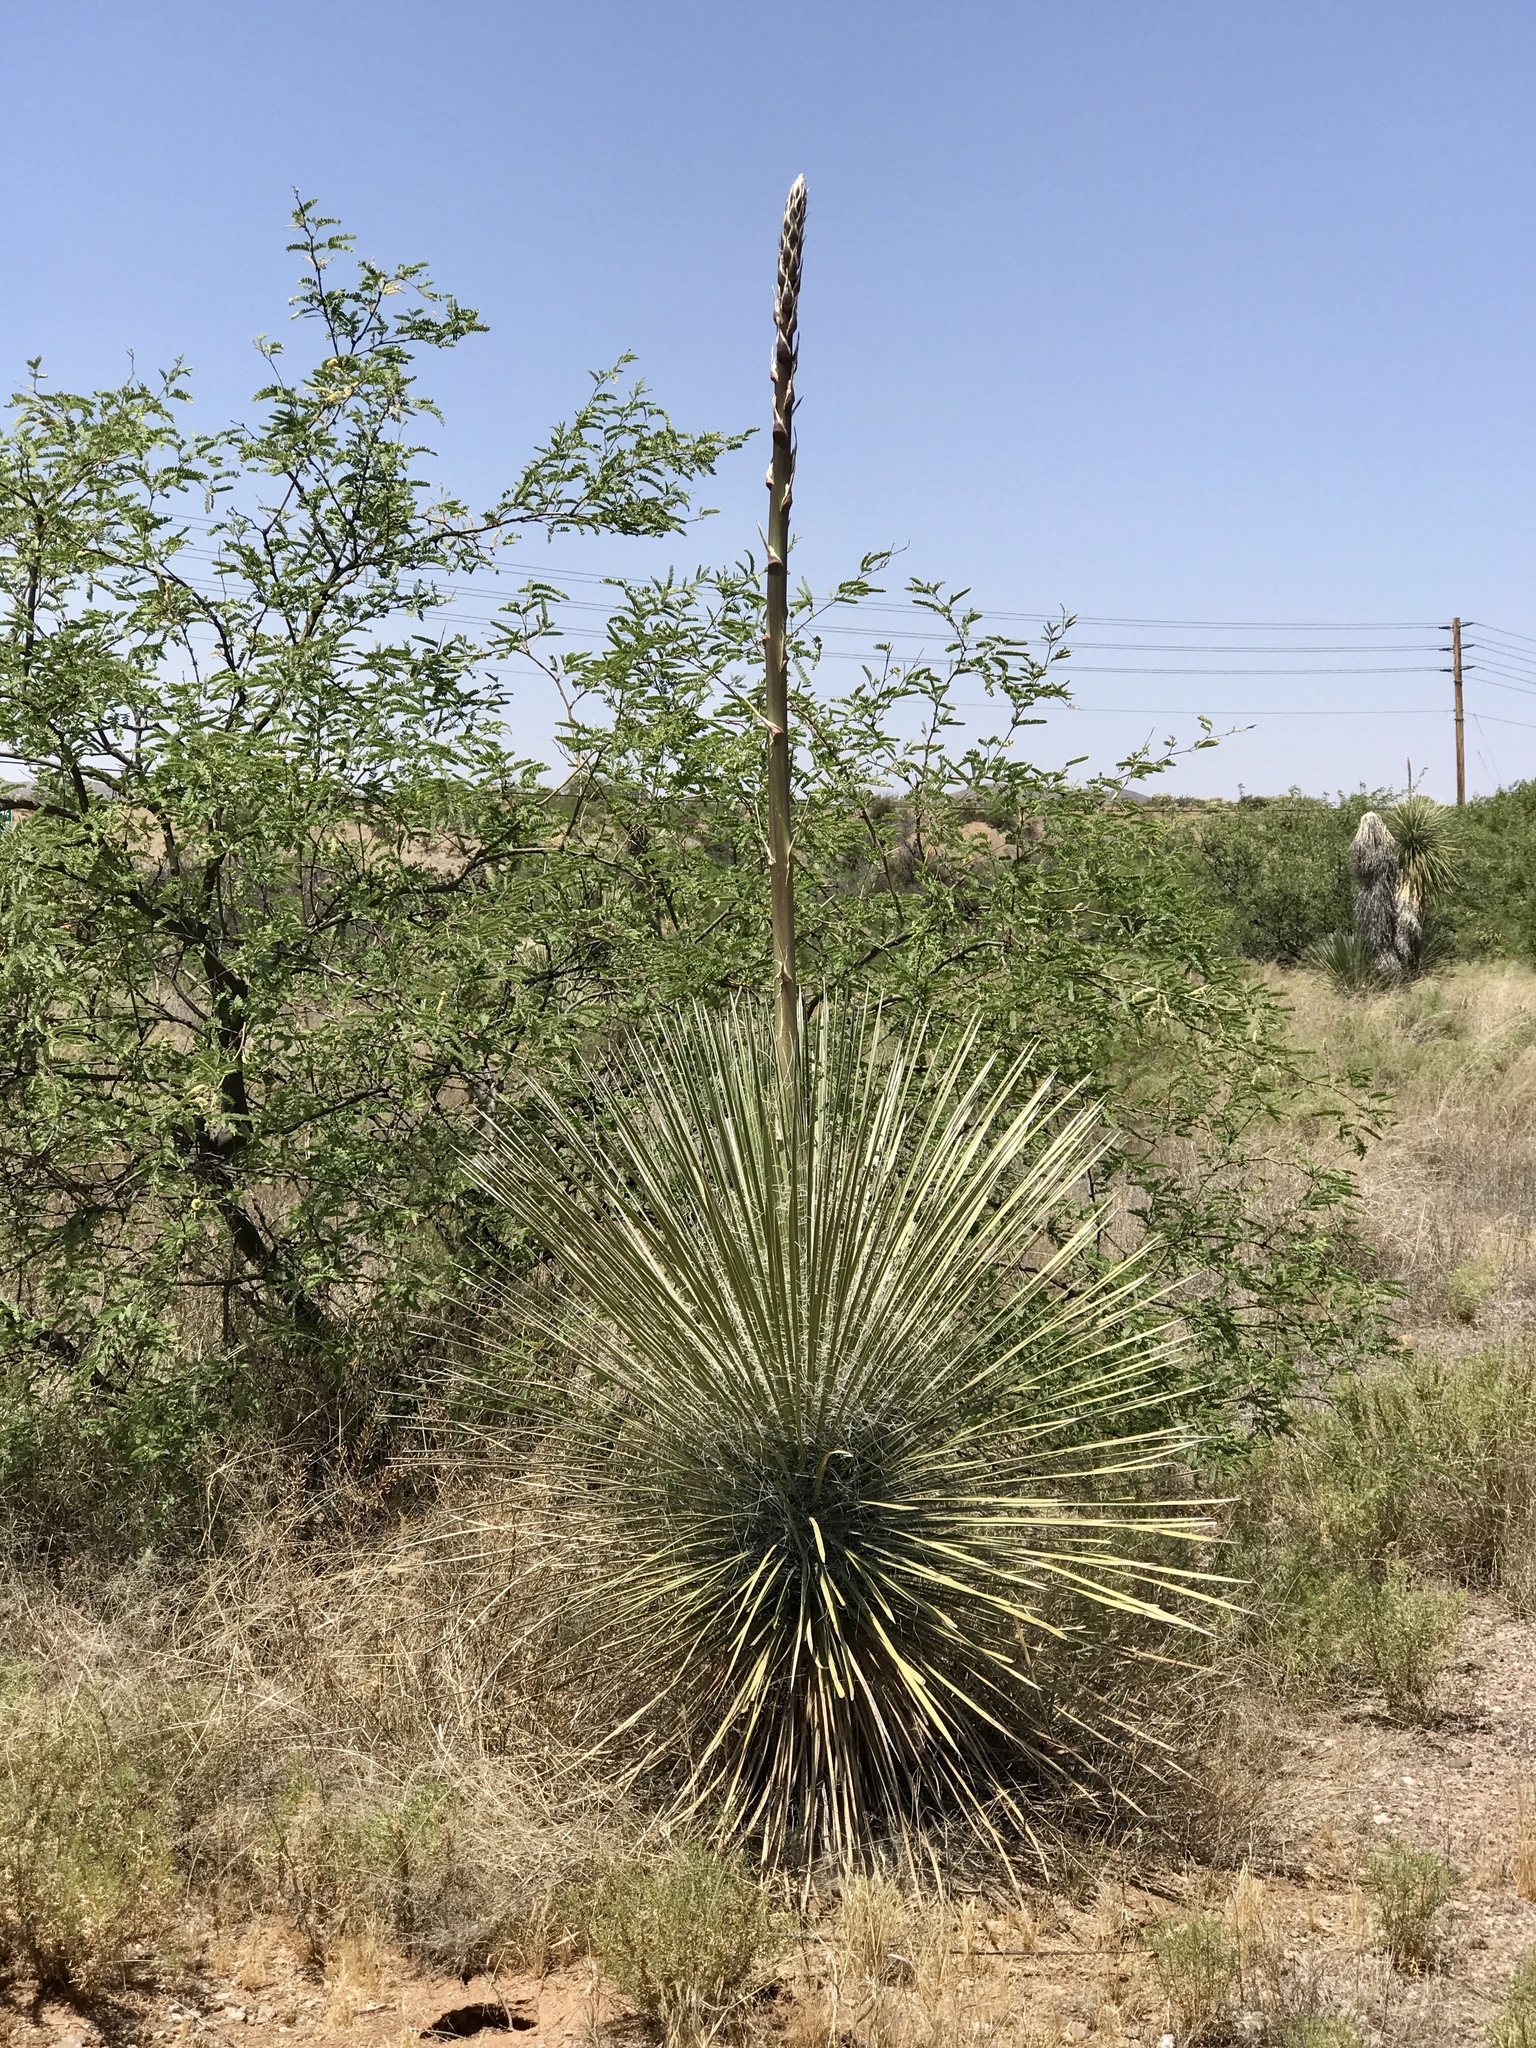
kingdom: Plantae
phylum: Tracheophyta
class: Liliopsida
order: Asparagales
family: Asparagaceae
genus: Yucca
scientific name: Yucca elata
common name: Palmella
